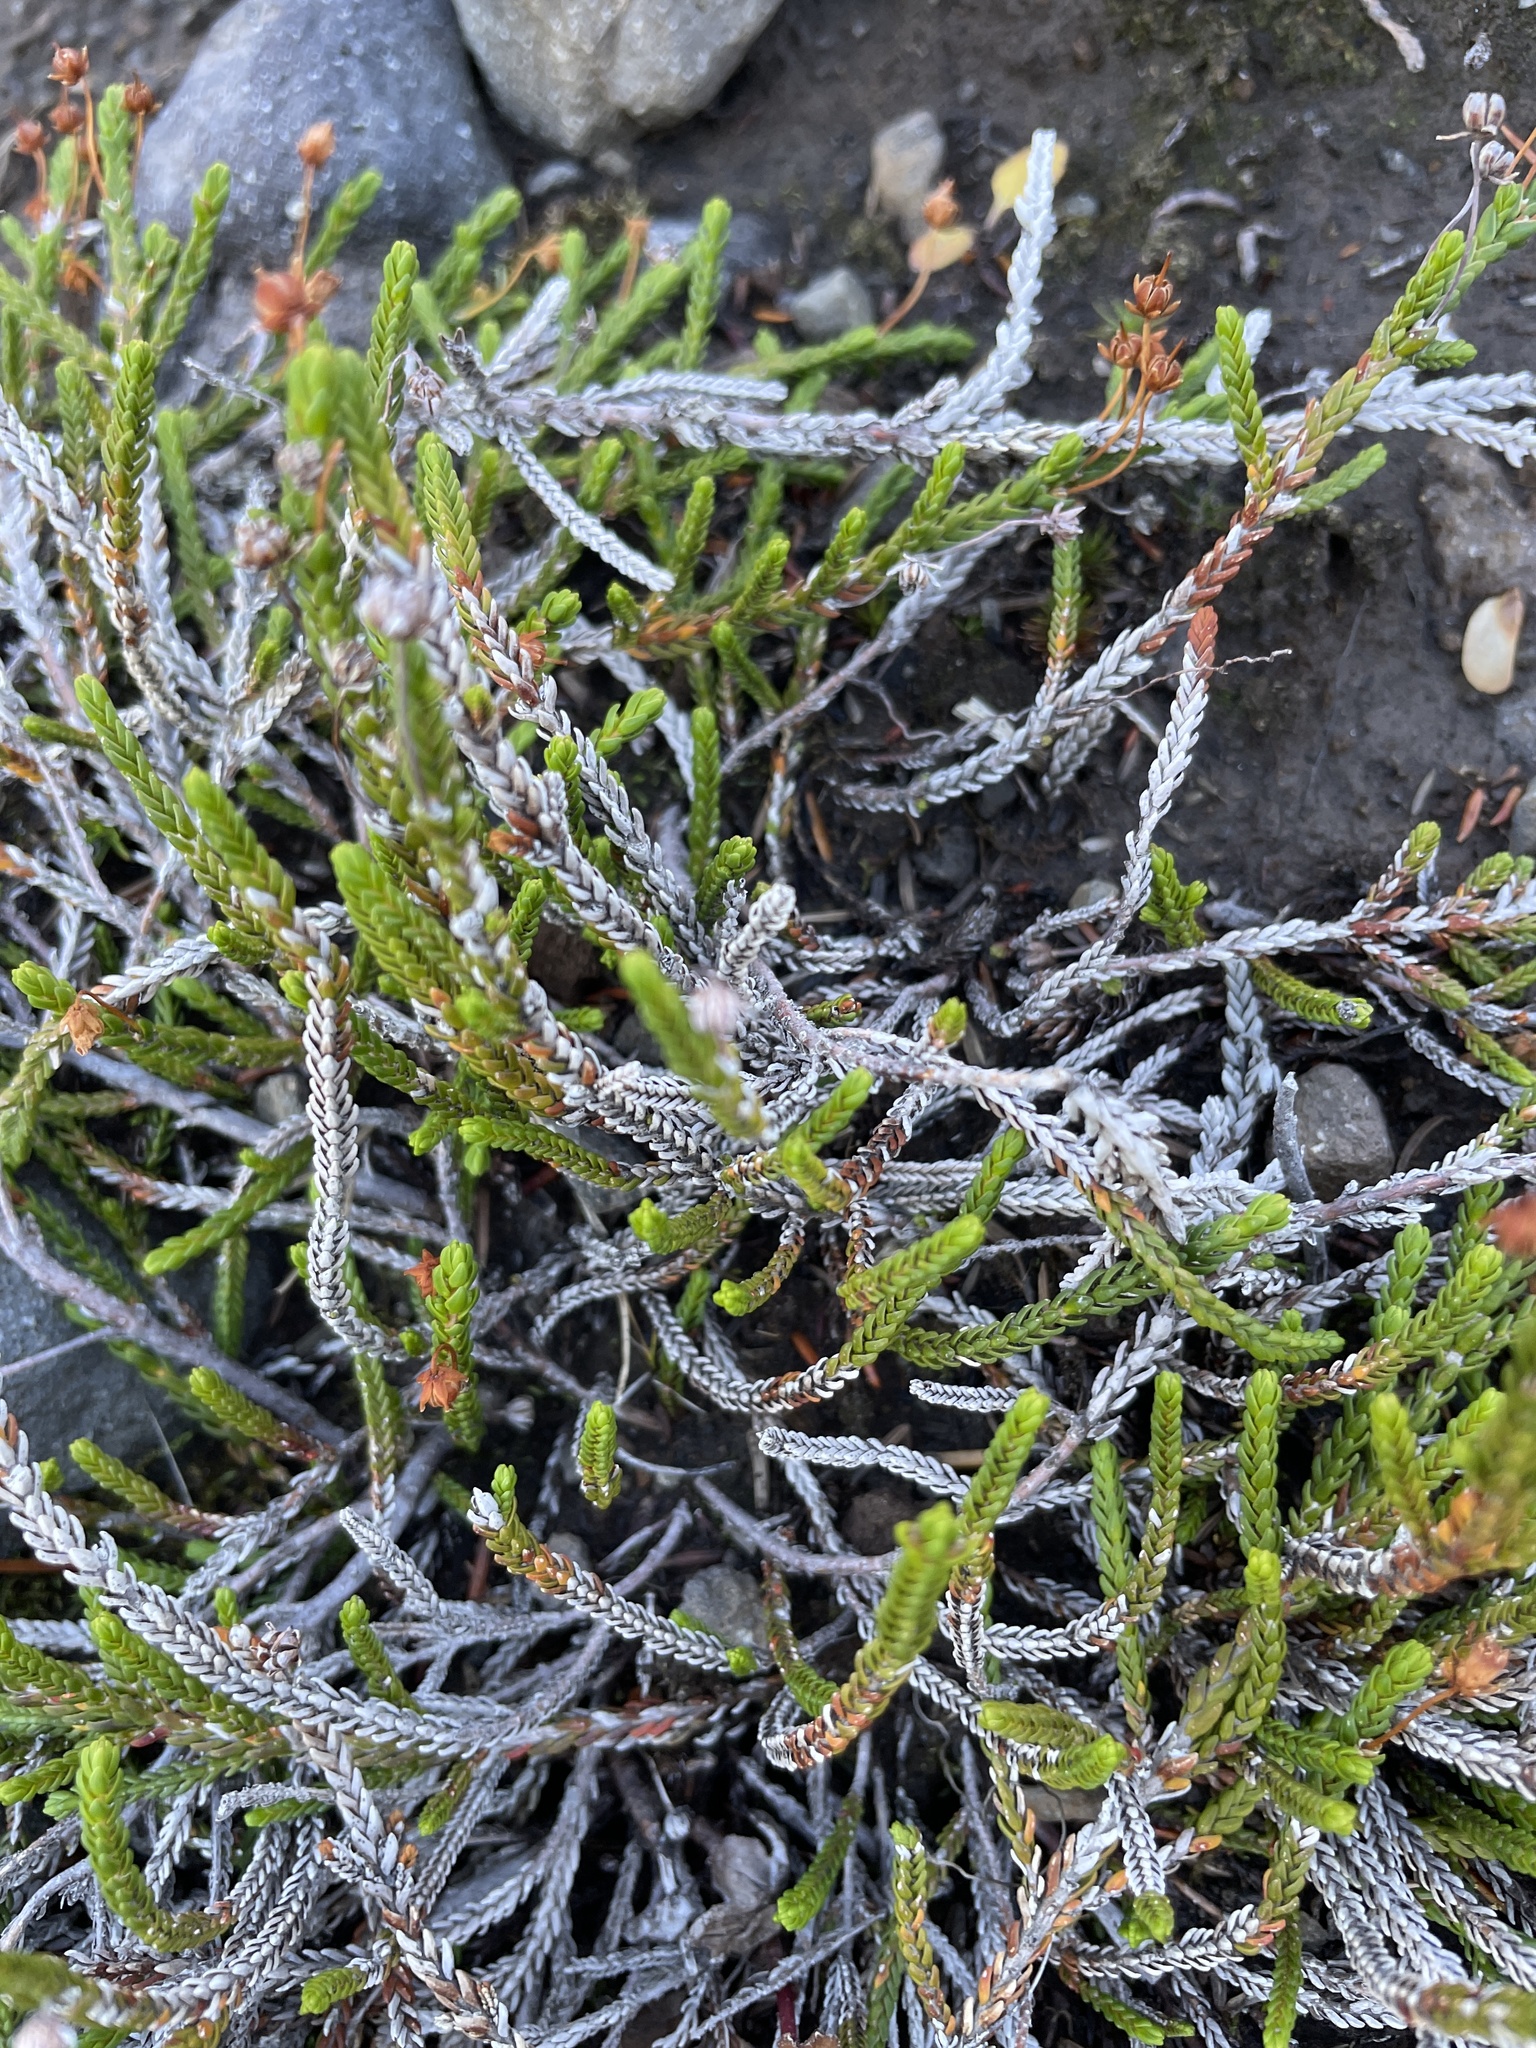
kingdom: Plantae
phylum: Tracheophyta
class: Magnoliopsida
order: Ericales
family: Ericaceae
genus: Cassiope
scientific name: Cassiope mertensiana
